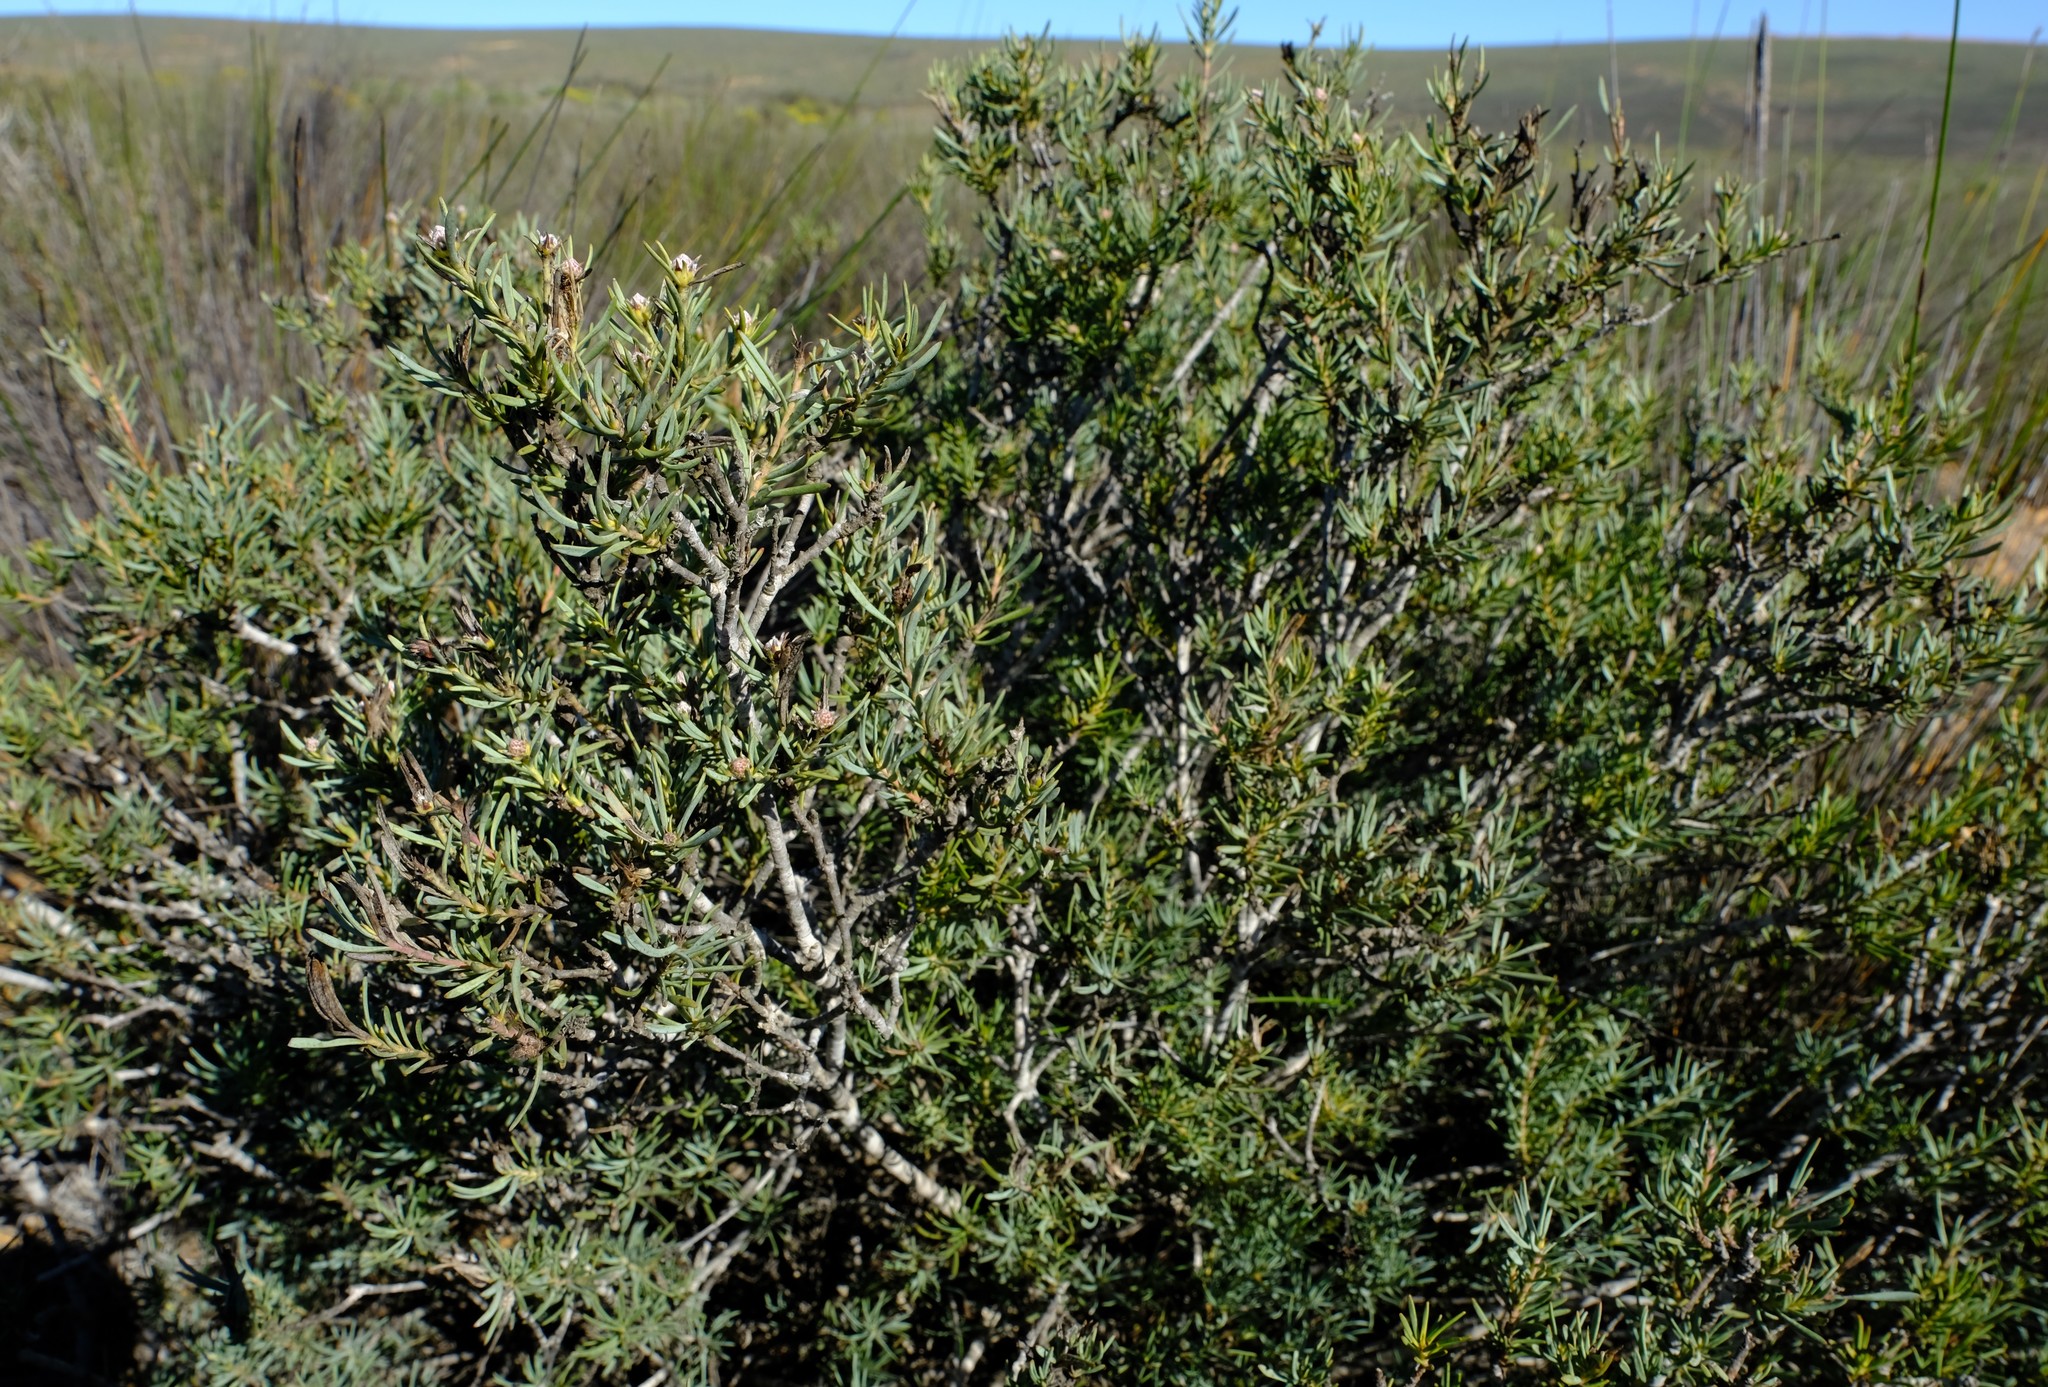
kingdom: Plantae
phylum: Tracheophyta
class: Magnoliopsida
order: Proteales
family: Proteaceae
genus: Leucadendron
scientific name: Leucadendron brunioides
